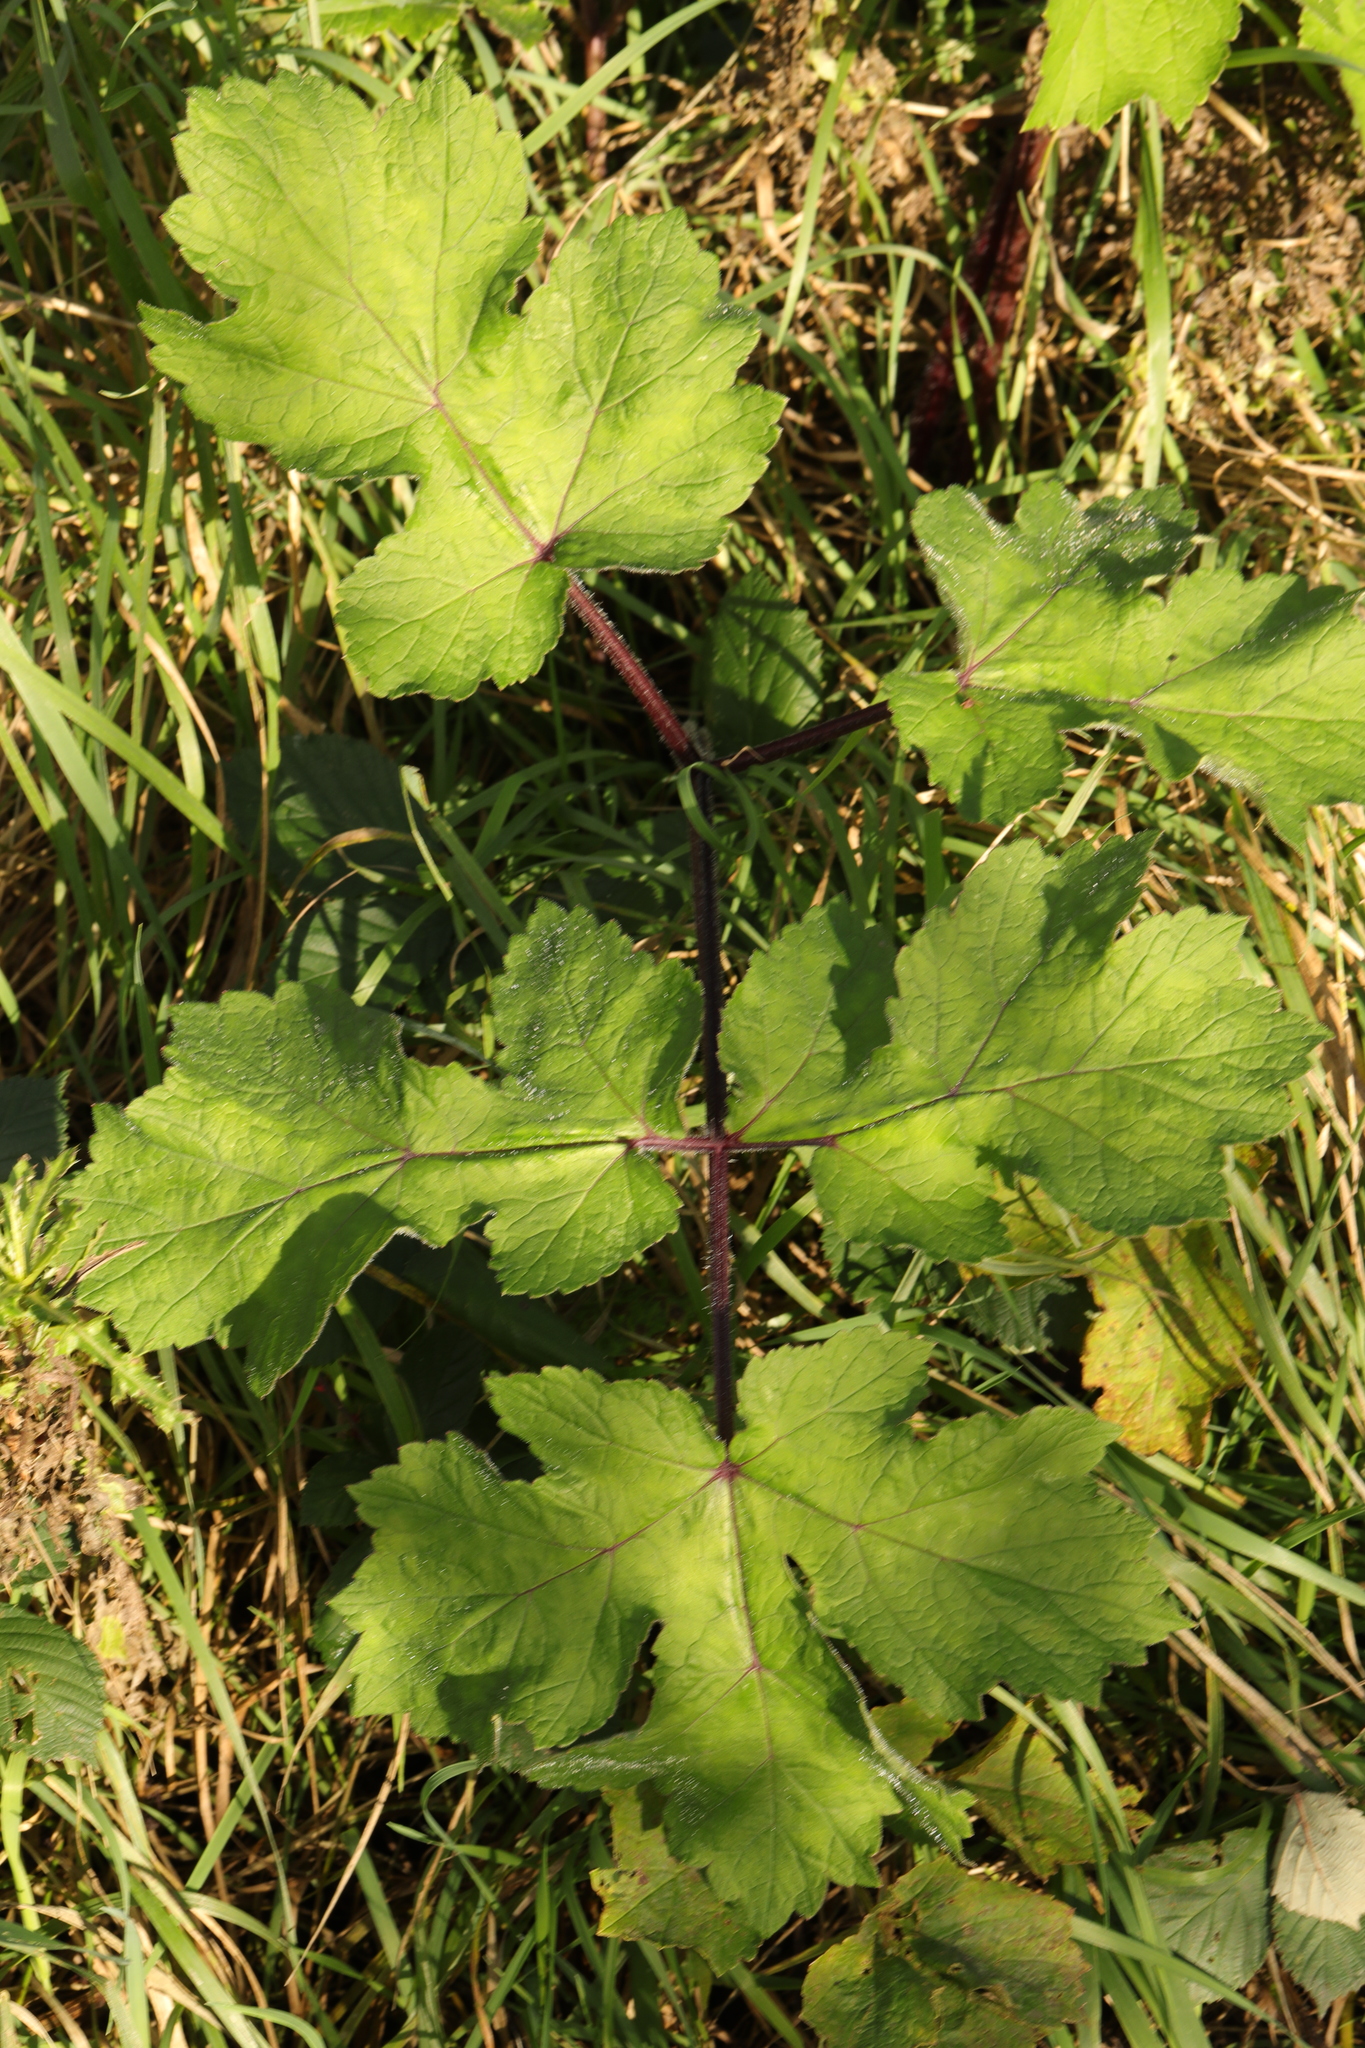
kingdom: Plantae
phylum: Tracheophyta
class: Magnoliopsida
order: Apiales
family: Apiaceae
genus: Heracleum
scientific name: Heracleum sphondylium
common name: Hogweed
